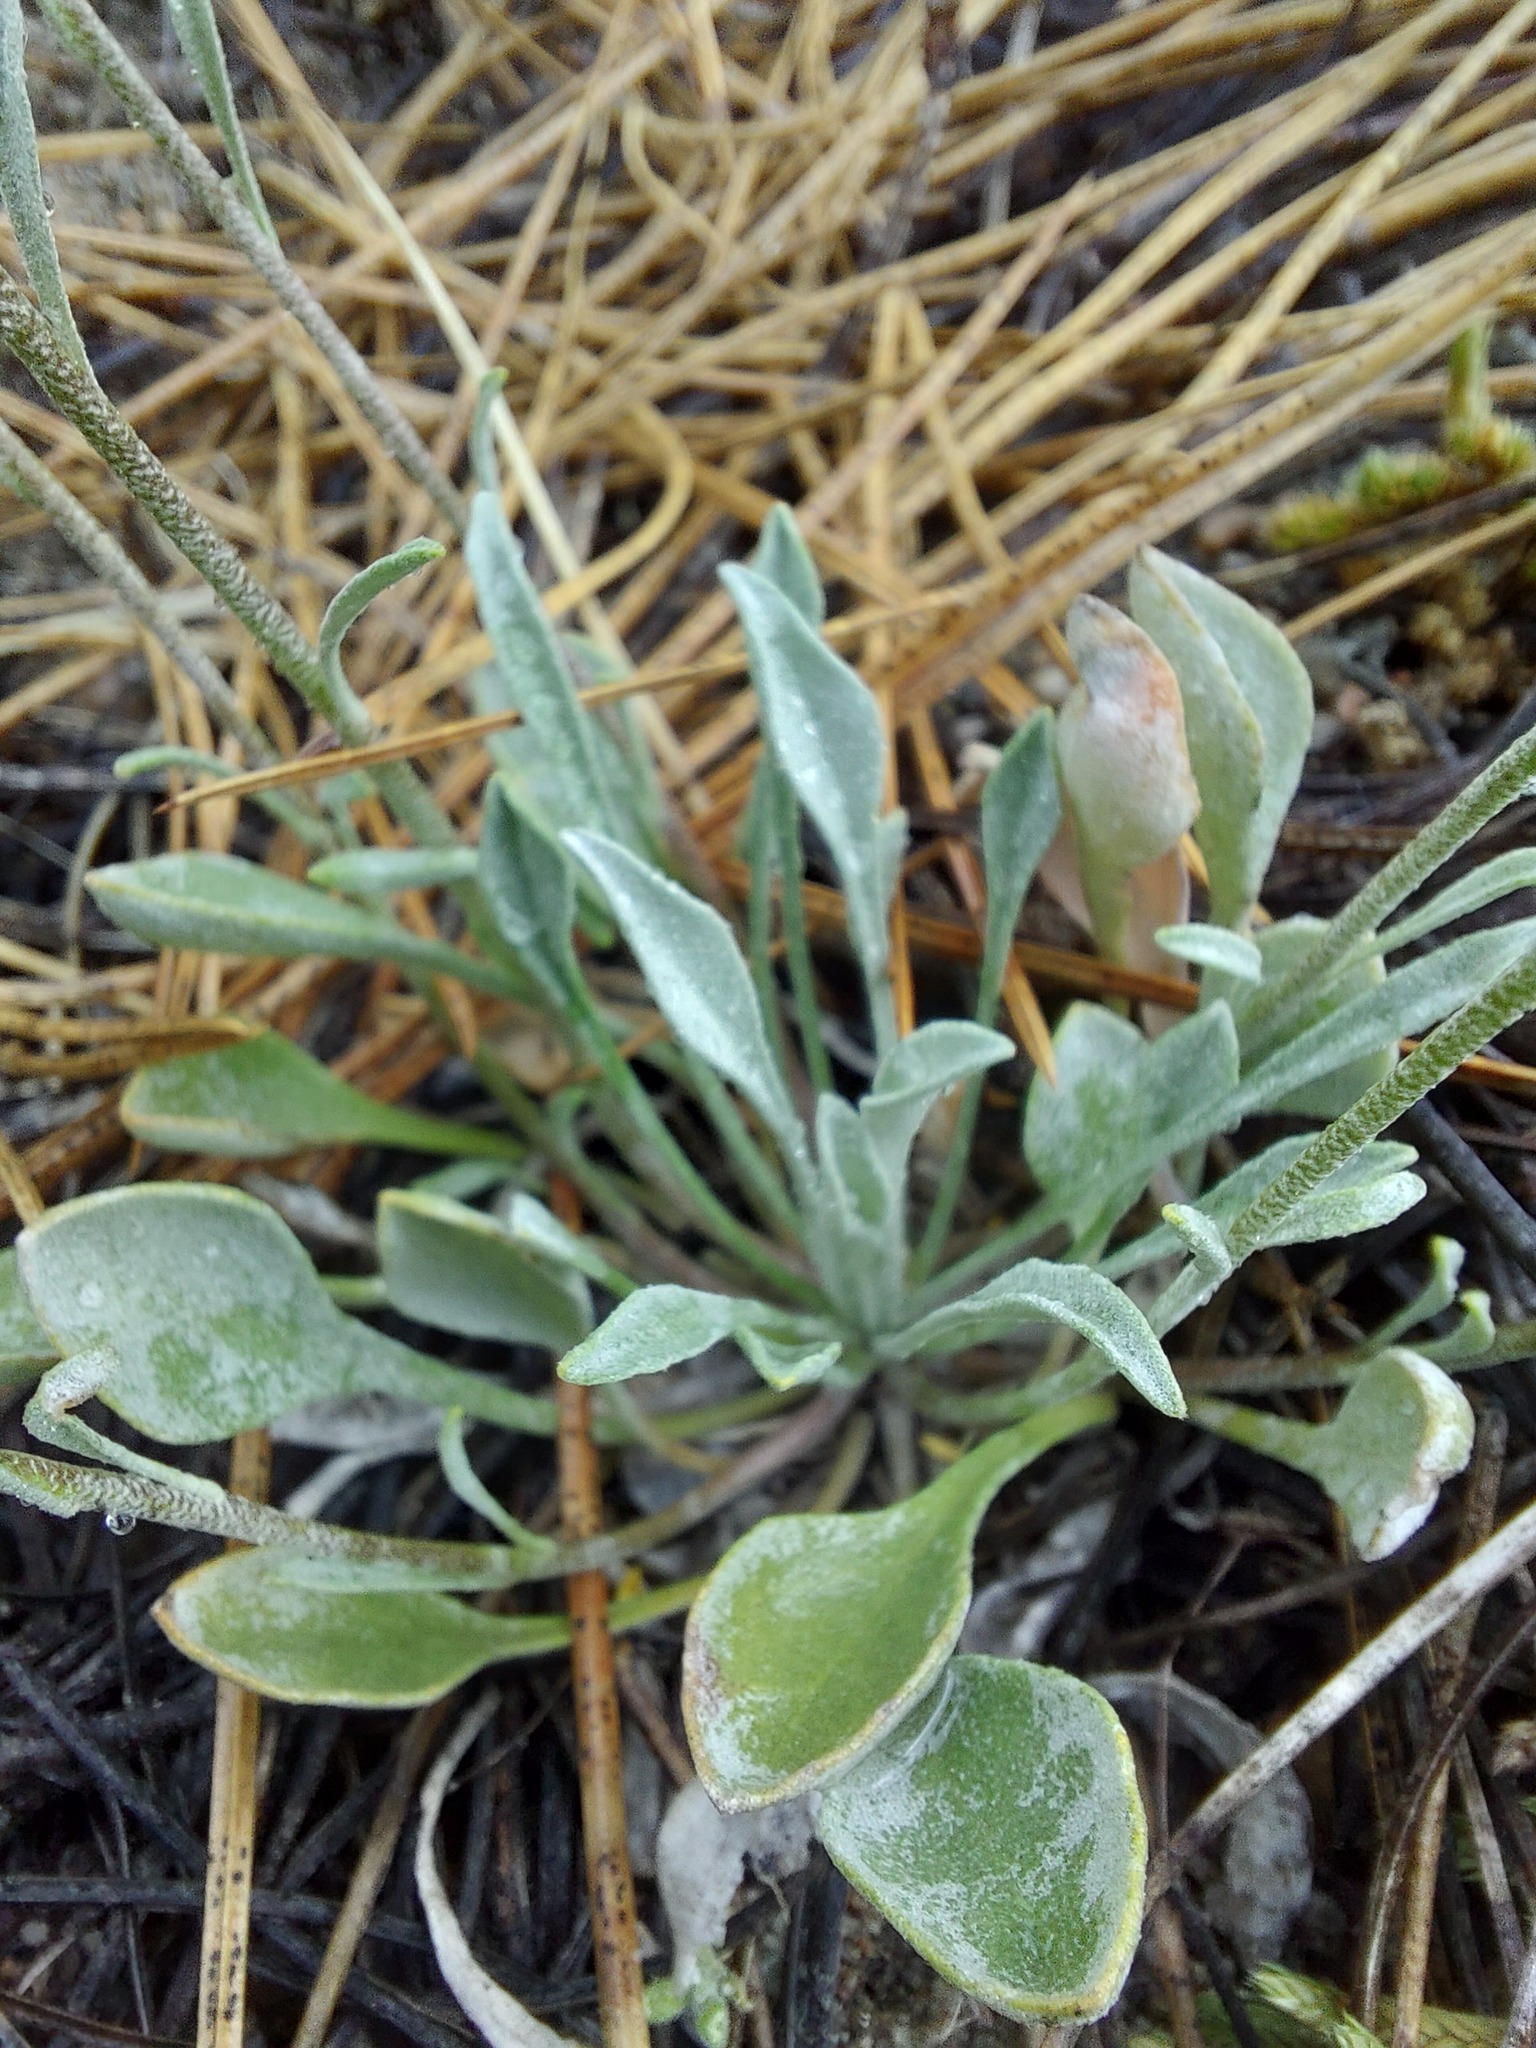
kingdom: Plantae
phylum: Tracheophyta
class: Magnoliopsida
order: Brassicales
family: Brassicaceae
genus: Physaria
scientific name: Physaria douglasii
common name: Douglas's bladderpod
